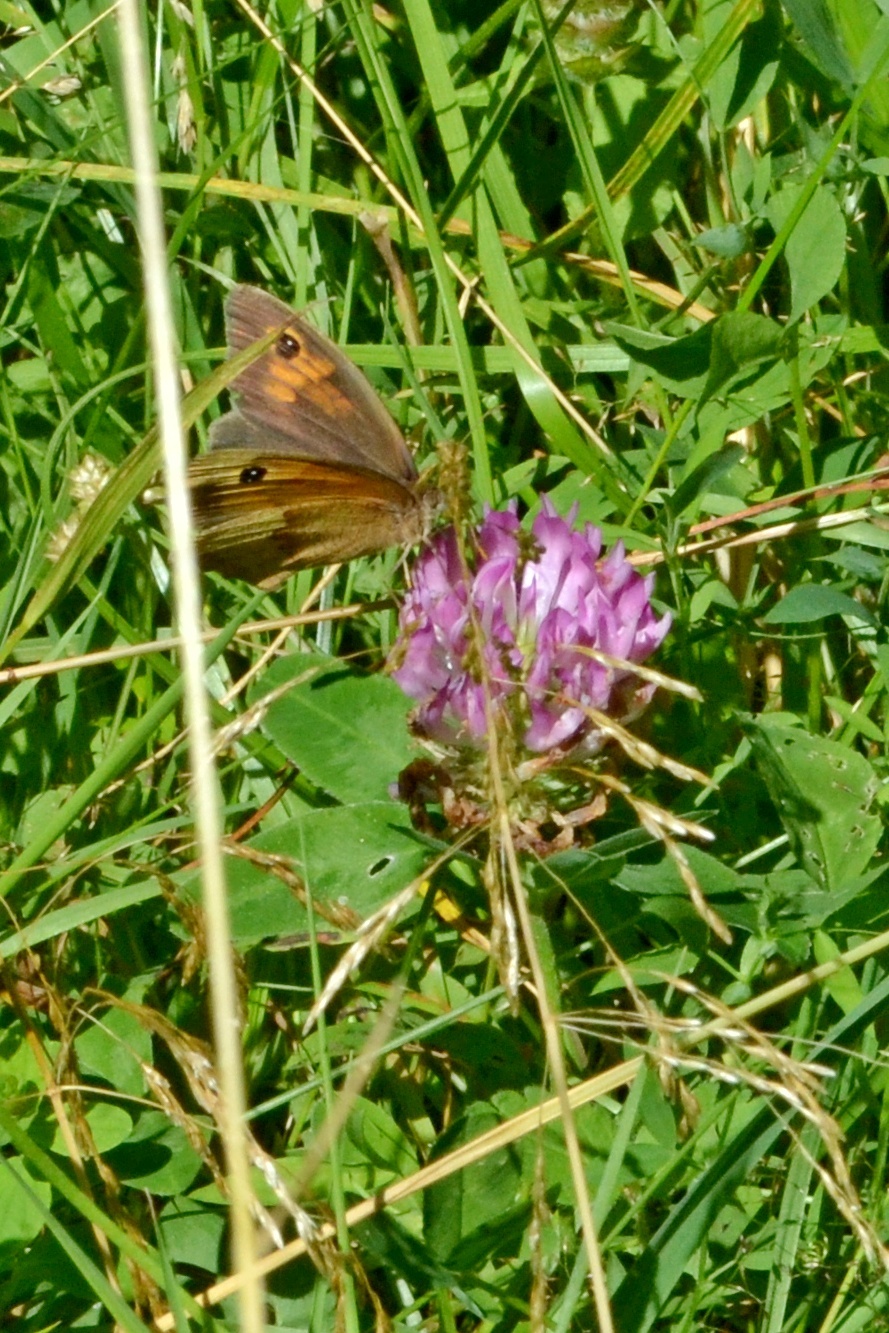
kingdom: Animalia
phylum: Arthropoda
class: Insecta
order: Lepidoptera
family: Nymphalidae
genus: Maniola
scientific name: Maniola jurtina
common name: Meadow brown
